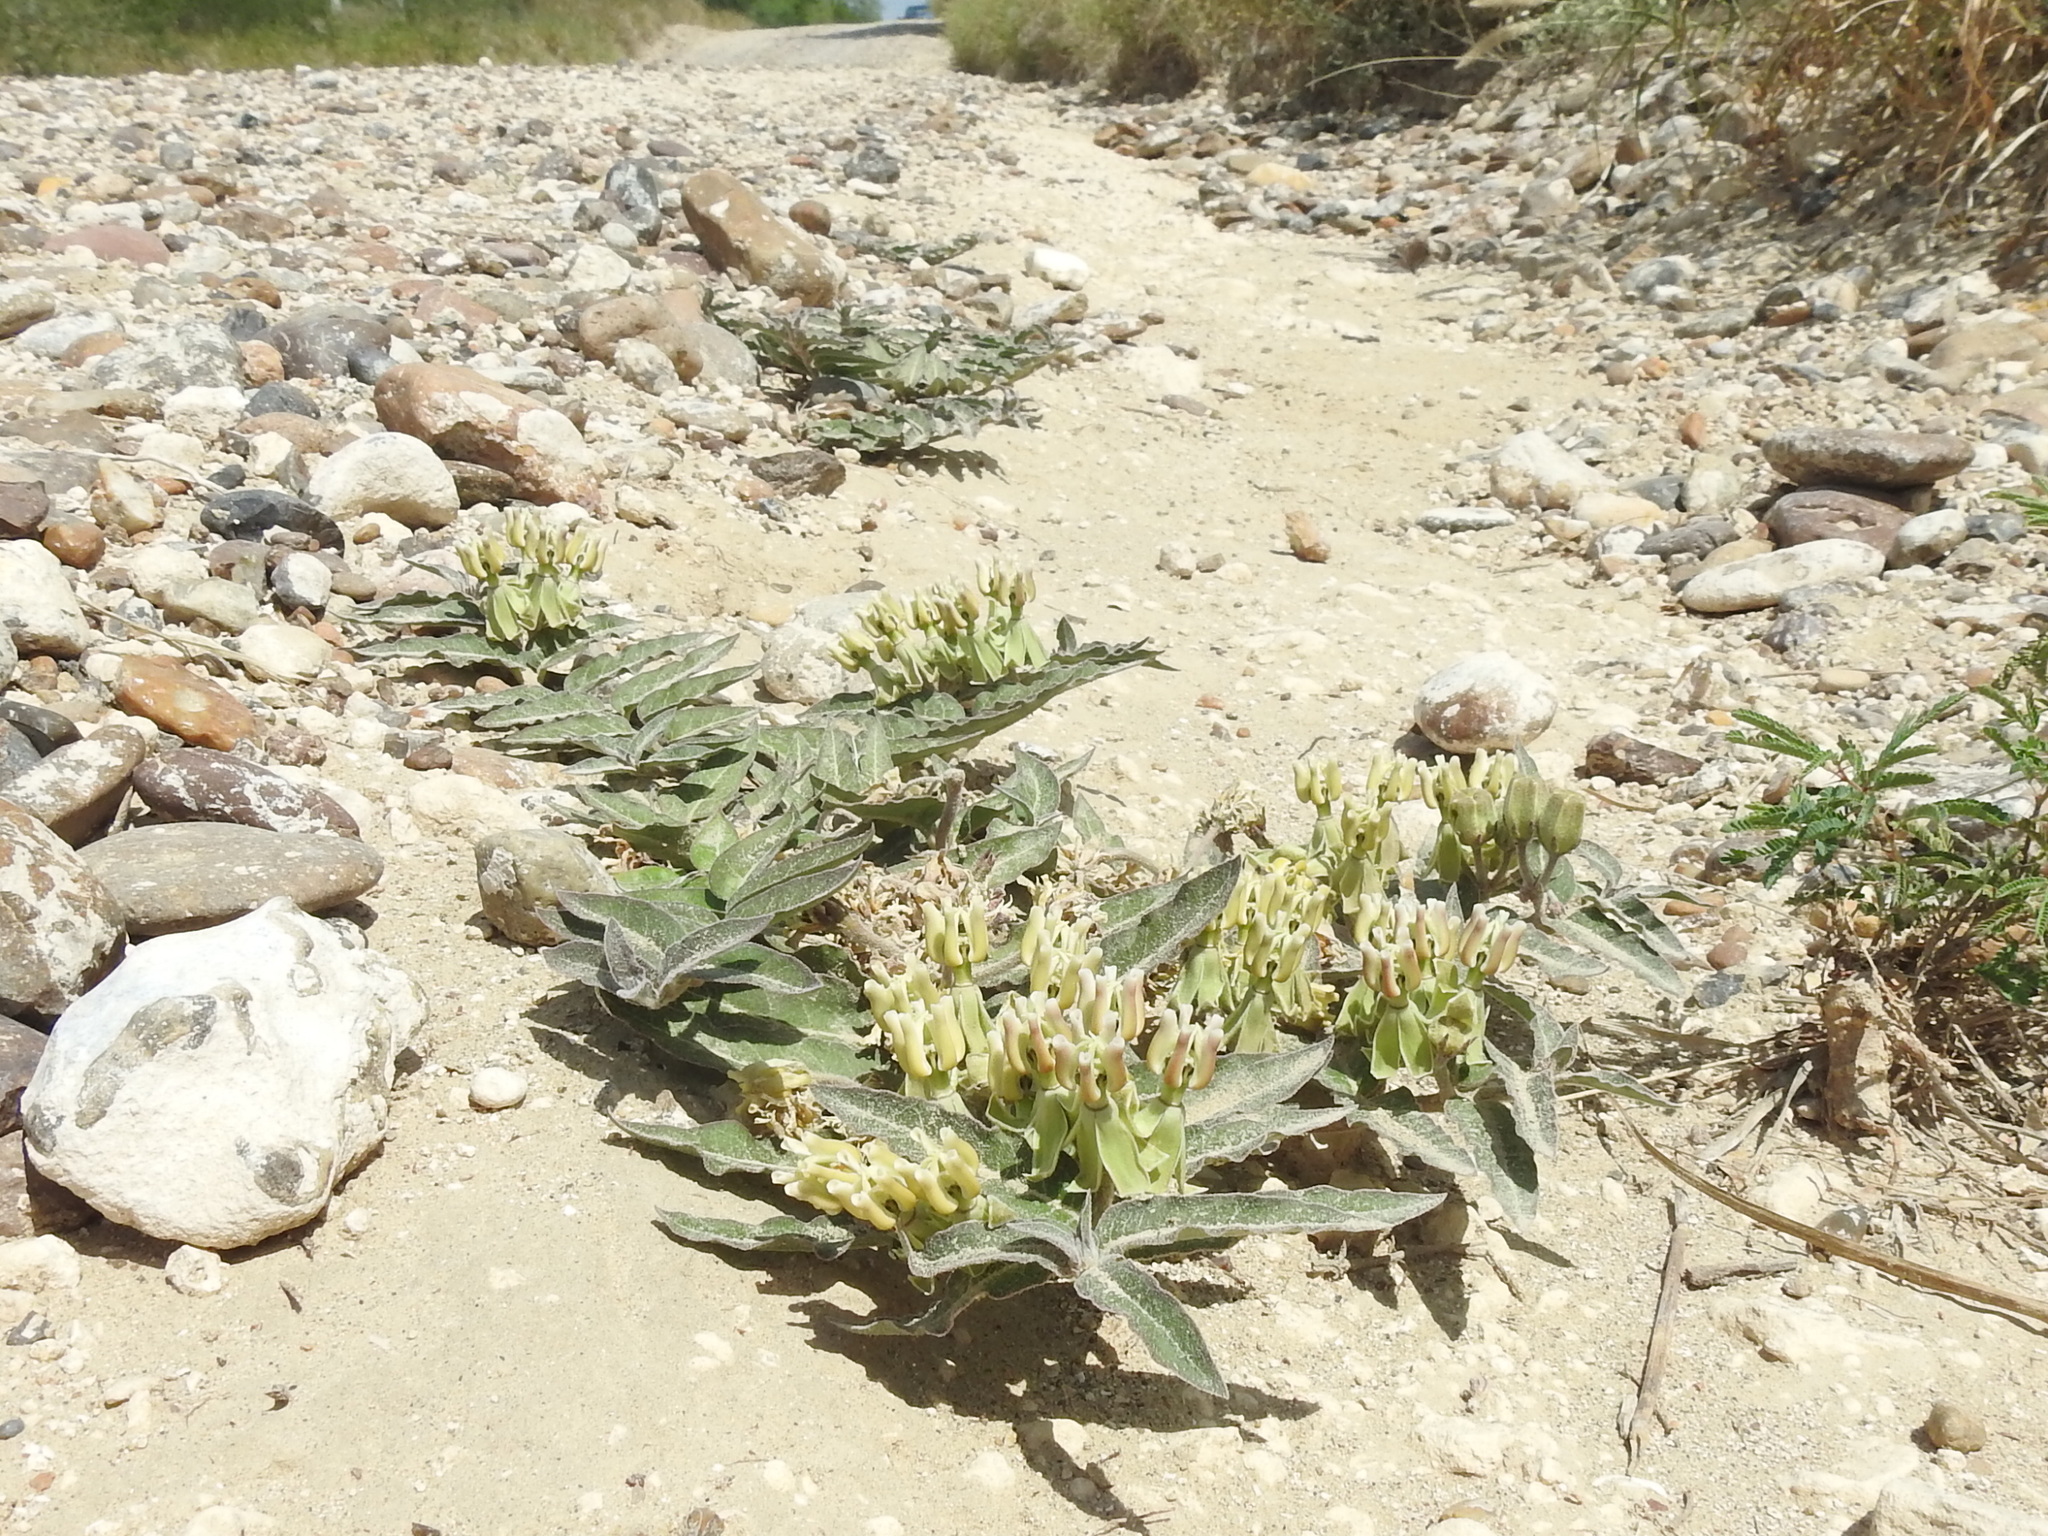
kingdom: Plantae
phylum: Tracheophyta
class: Magnoliopsida
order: Gentianales
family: Apocynaceae
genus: Asclepias
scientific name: Asclepias prostrata
